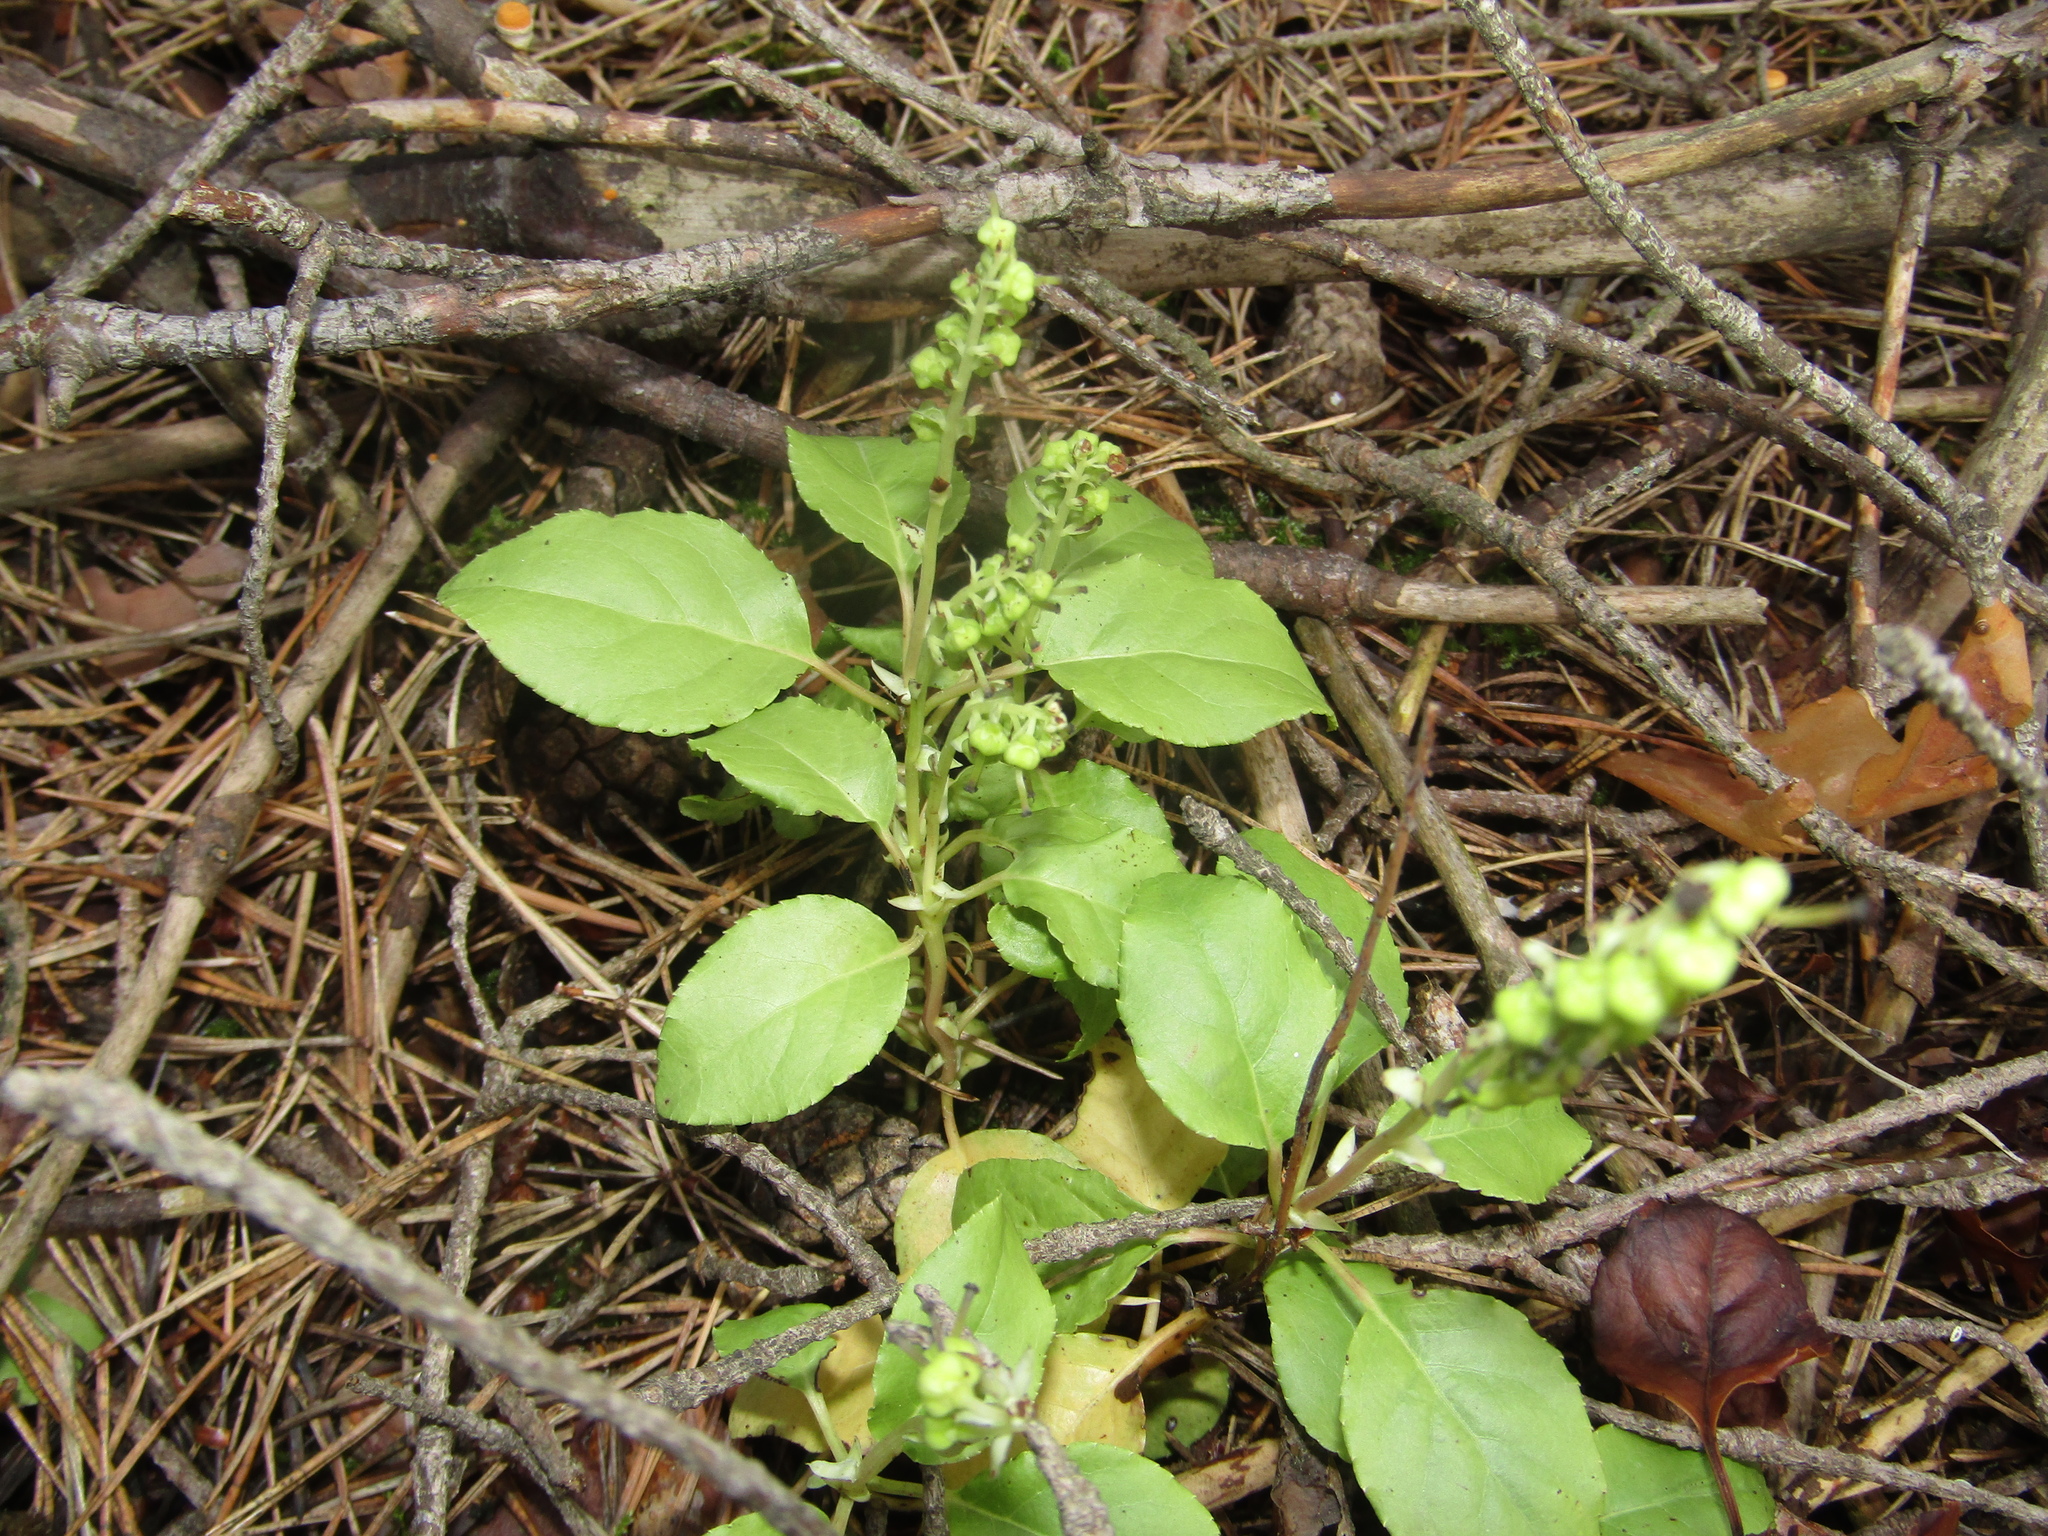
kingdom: Plantae
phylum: Tracheophyta
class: Magnoliopsida
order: Ericales
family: Ericaceae
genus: Orthilia
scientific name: Orthilia secunda
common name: One-sided orthilia
